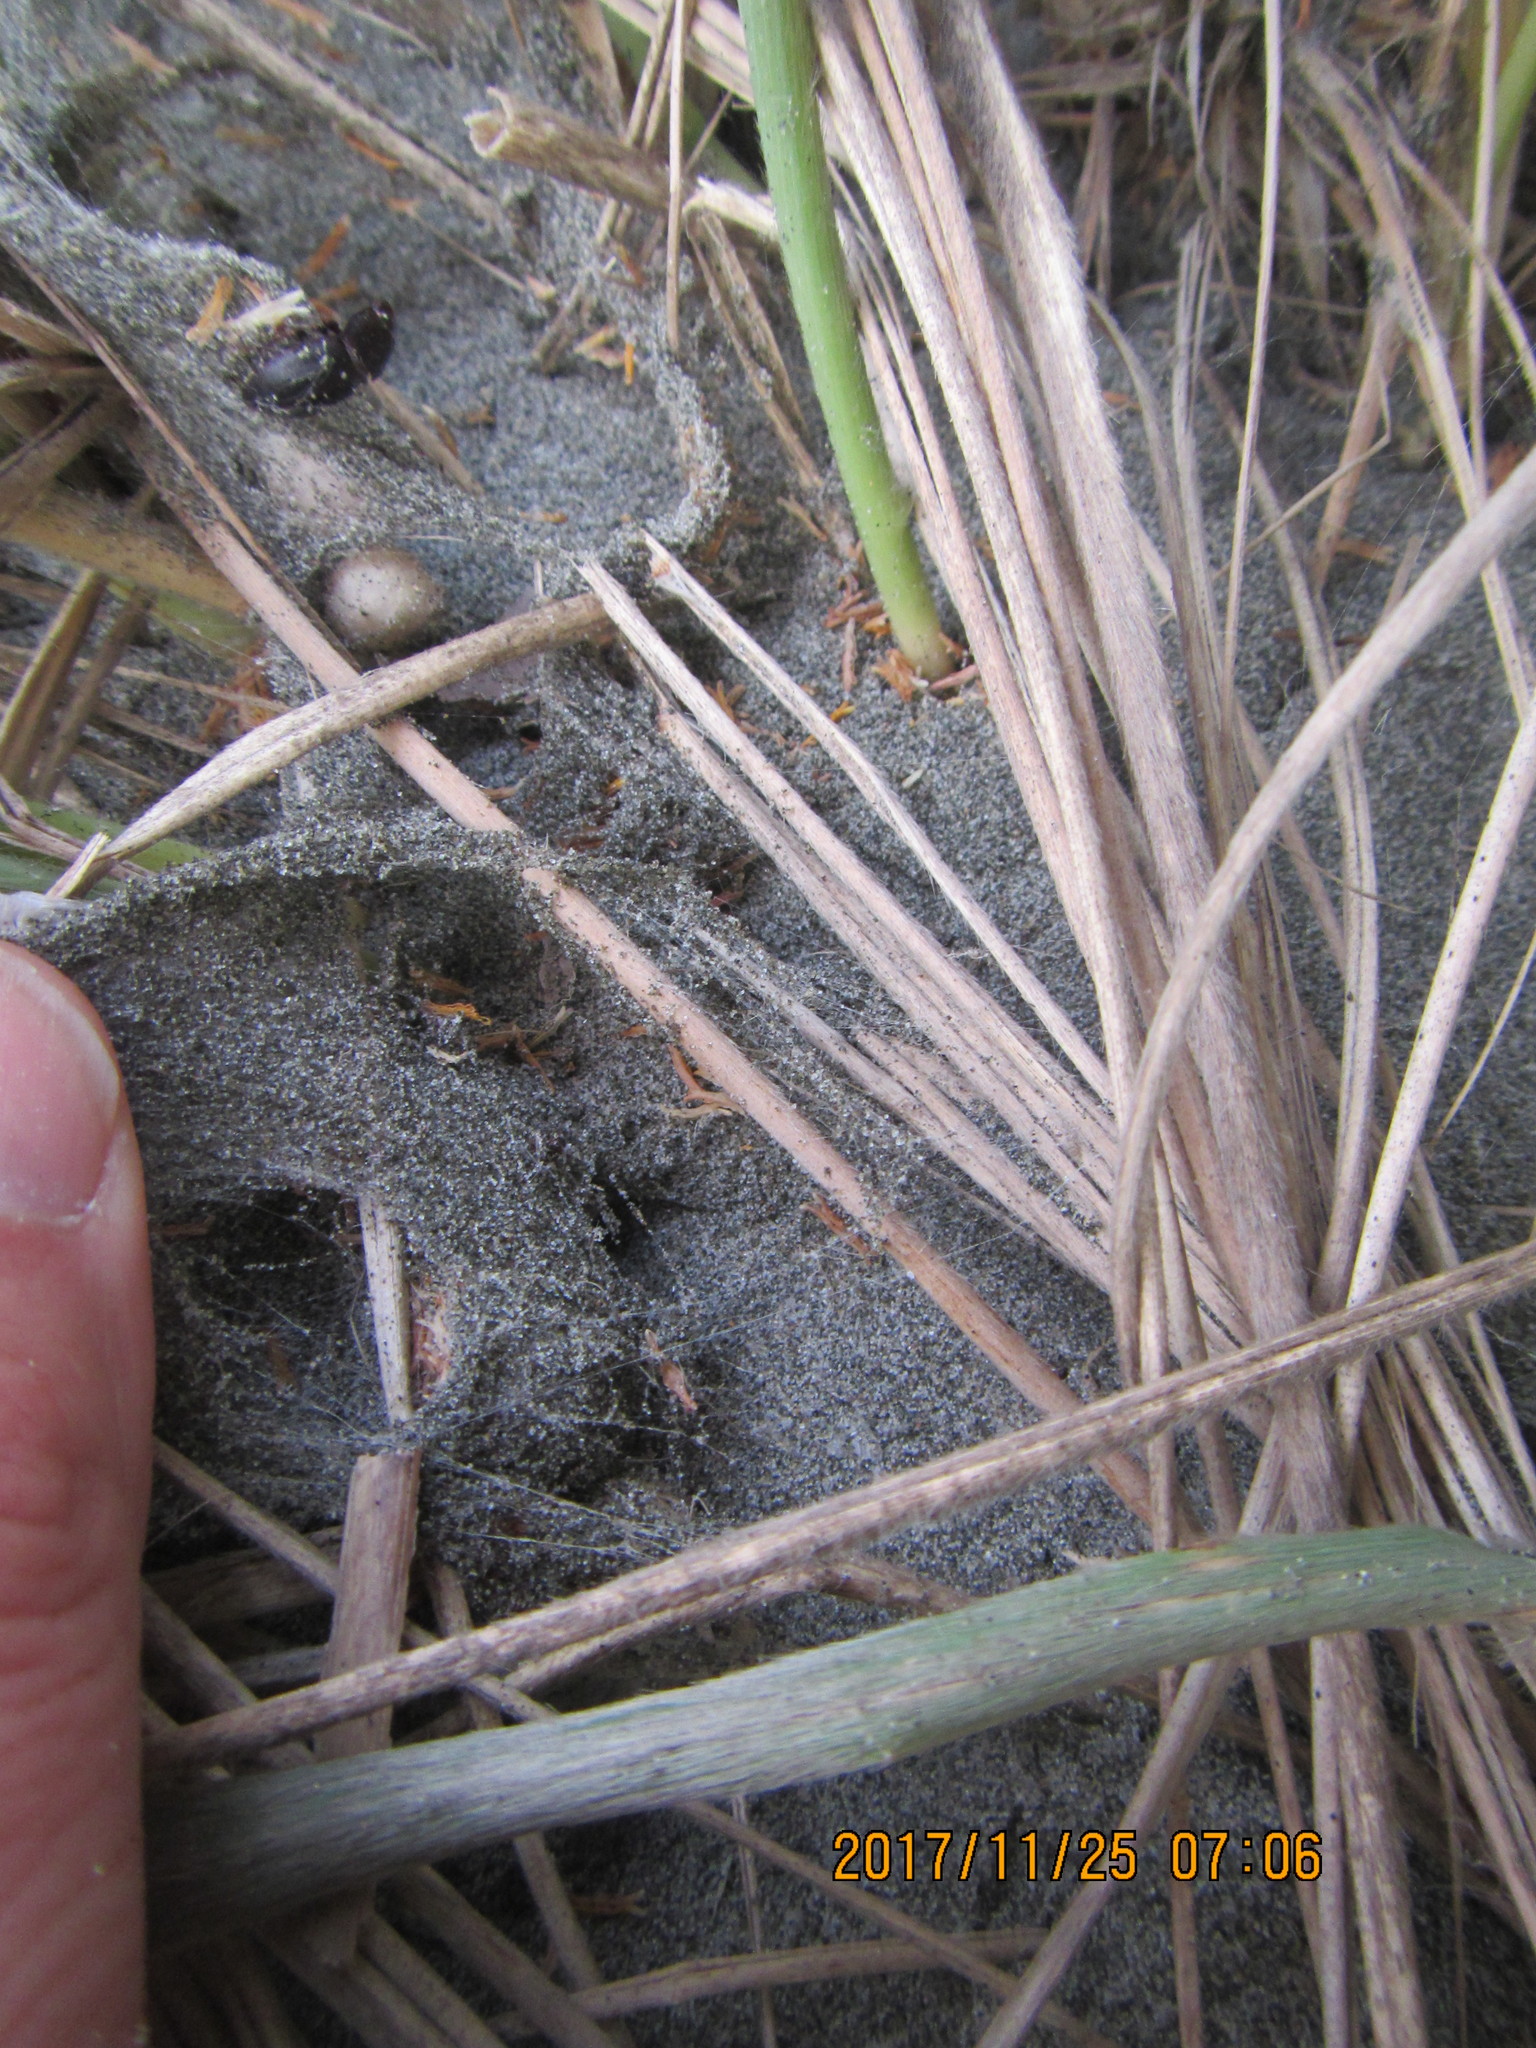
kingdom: Animalia
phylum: Arthropoda
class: Arachnida
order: Araneae
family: Theridiidae
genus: Latrodectus
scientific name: Latrodectus katipo
